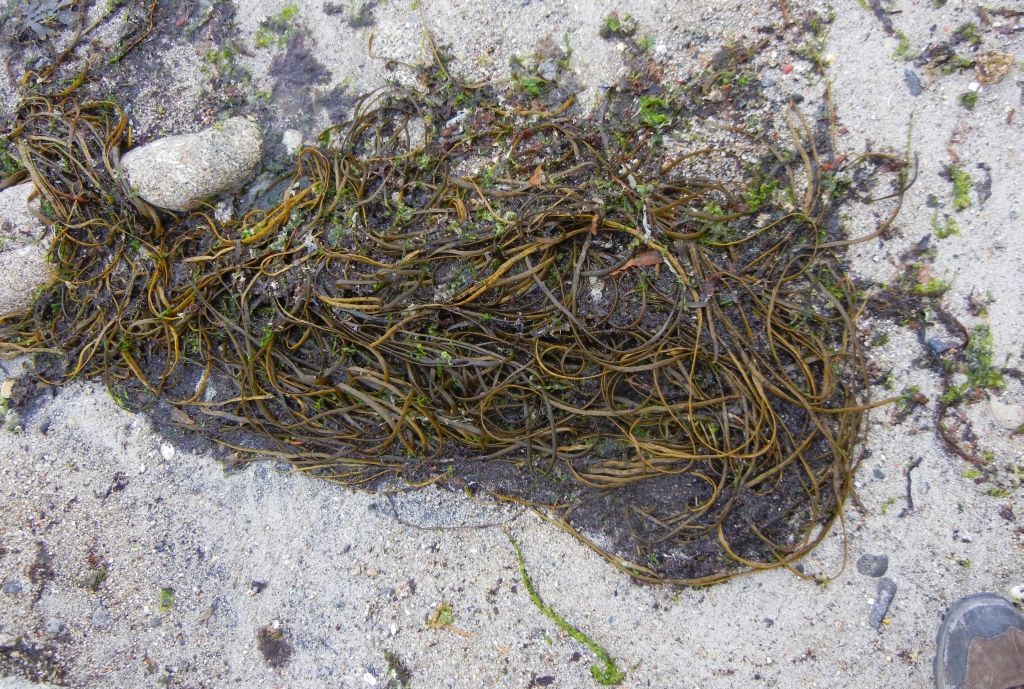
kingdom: Chromista
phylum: Ochrophyta
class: Phaeophyceae
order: Fucales
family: Himanthaliaceae
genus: Himanthalia
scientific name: Himanthalia elongata
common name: Sea-thong
